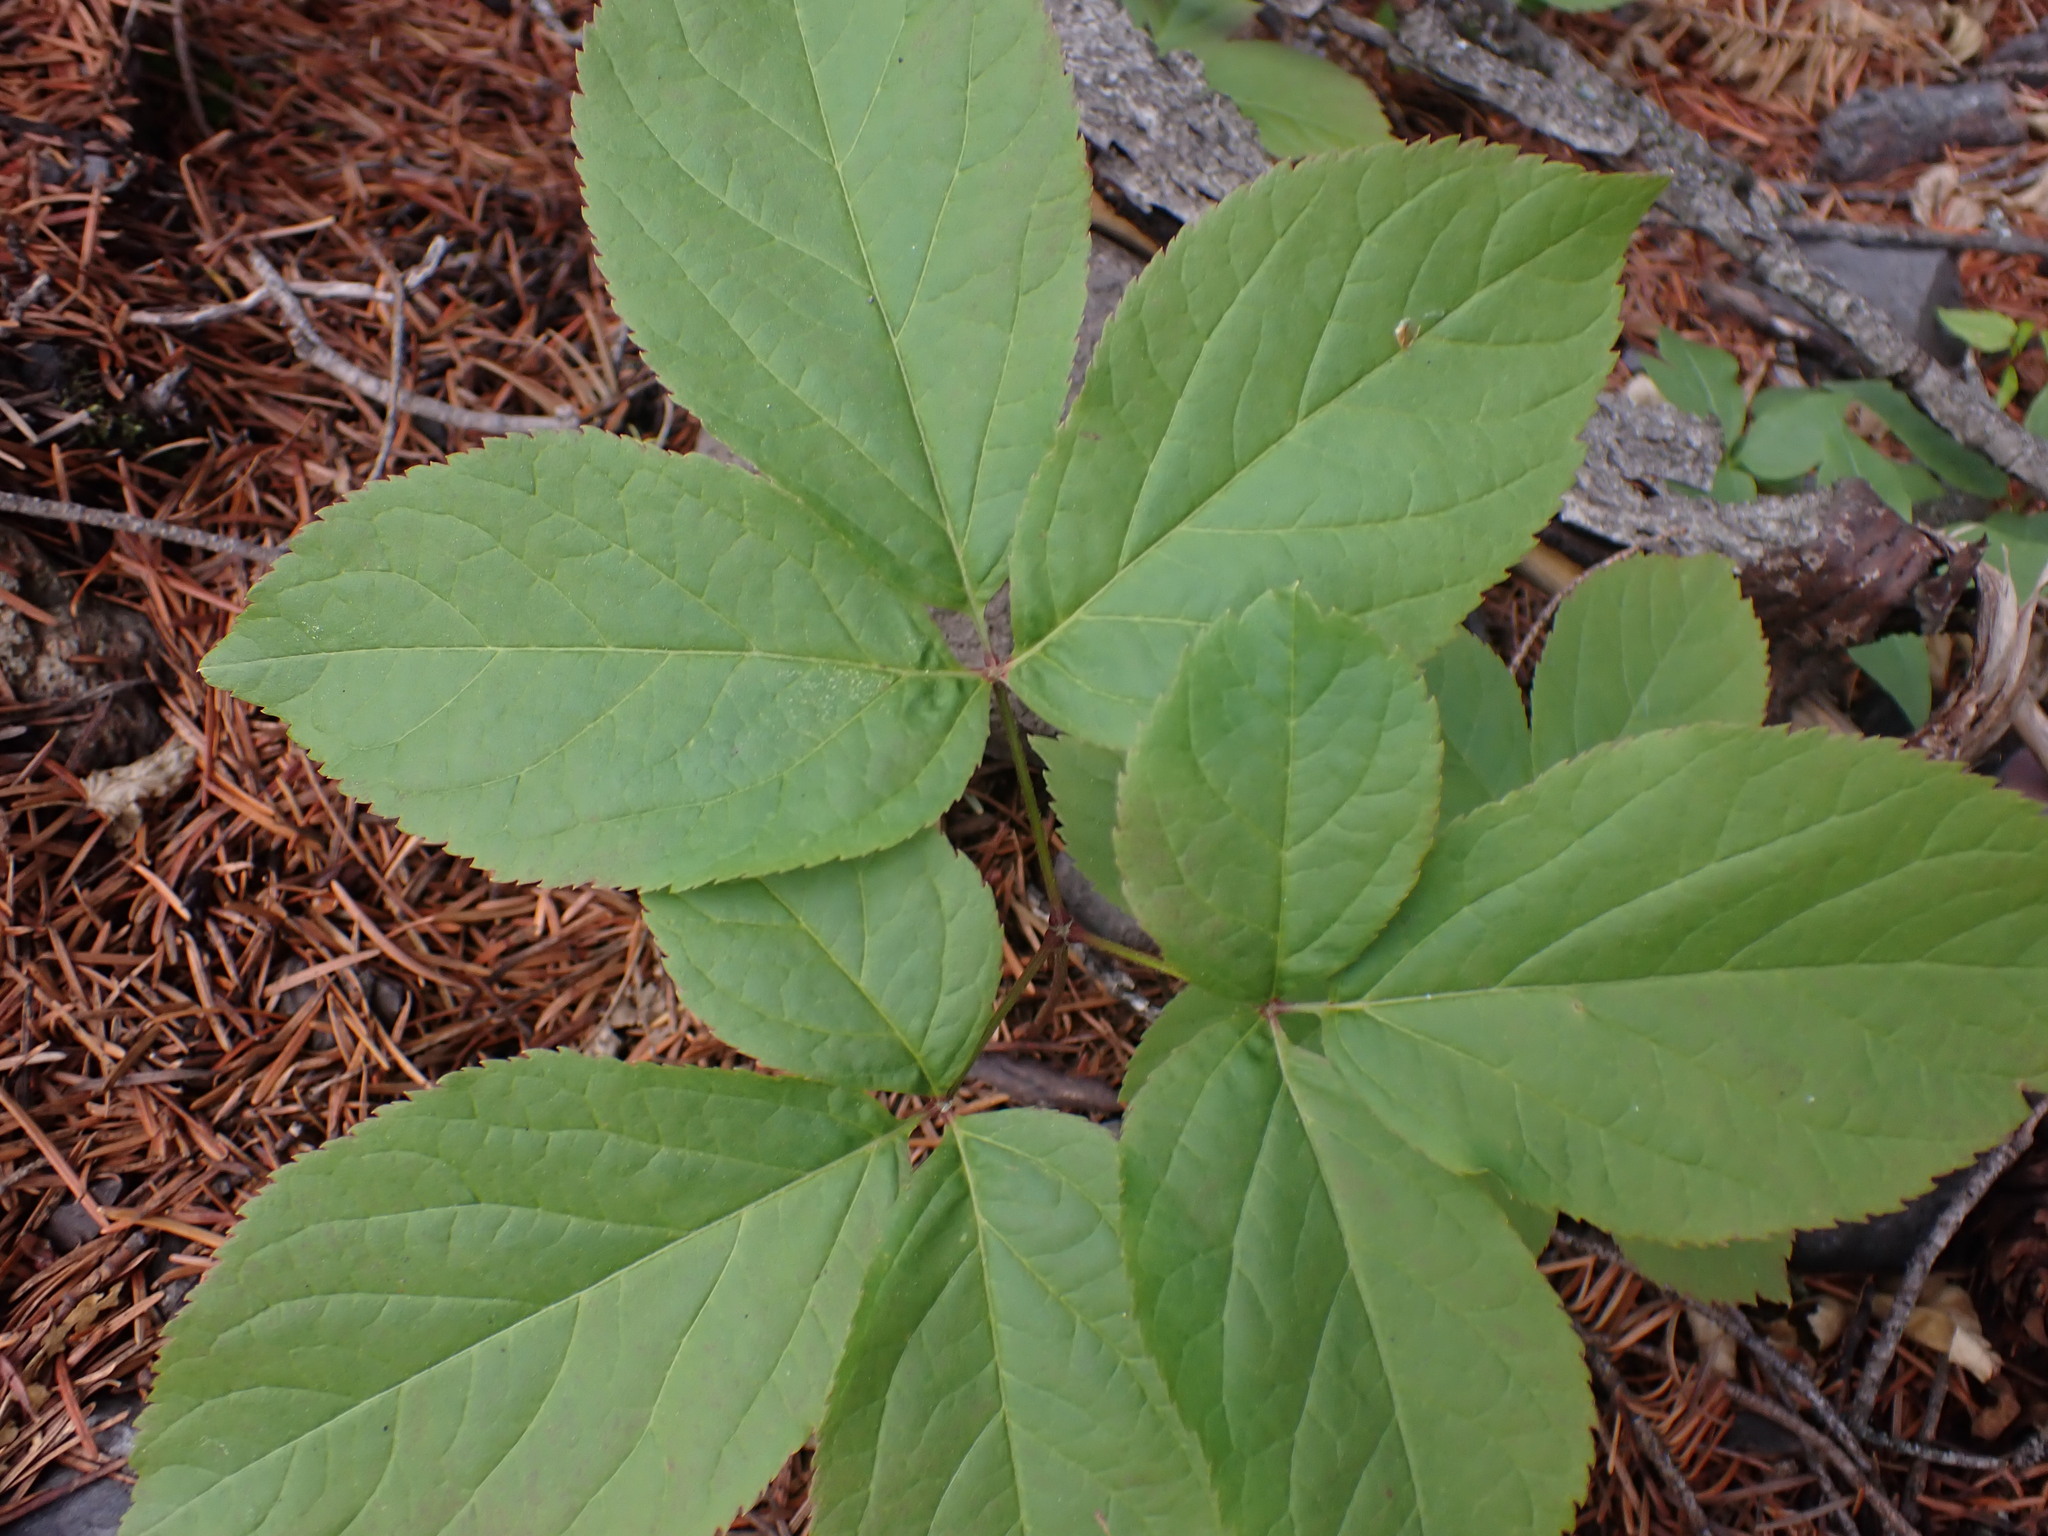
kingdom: Plantae
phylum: Tracheophyta
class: Magnoliopsida
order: Apiales
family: Araliaceae
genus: Aralia
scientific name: Aralia nudicaulis
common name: Wild sarsaparilla
